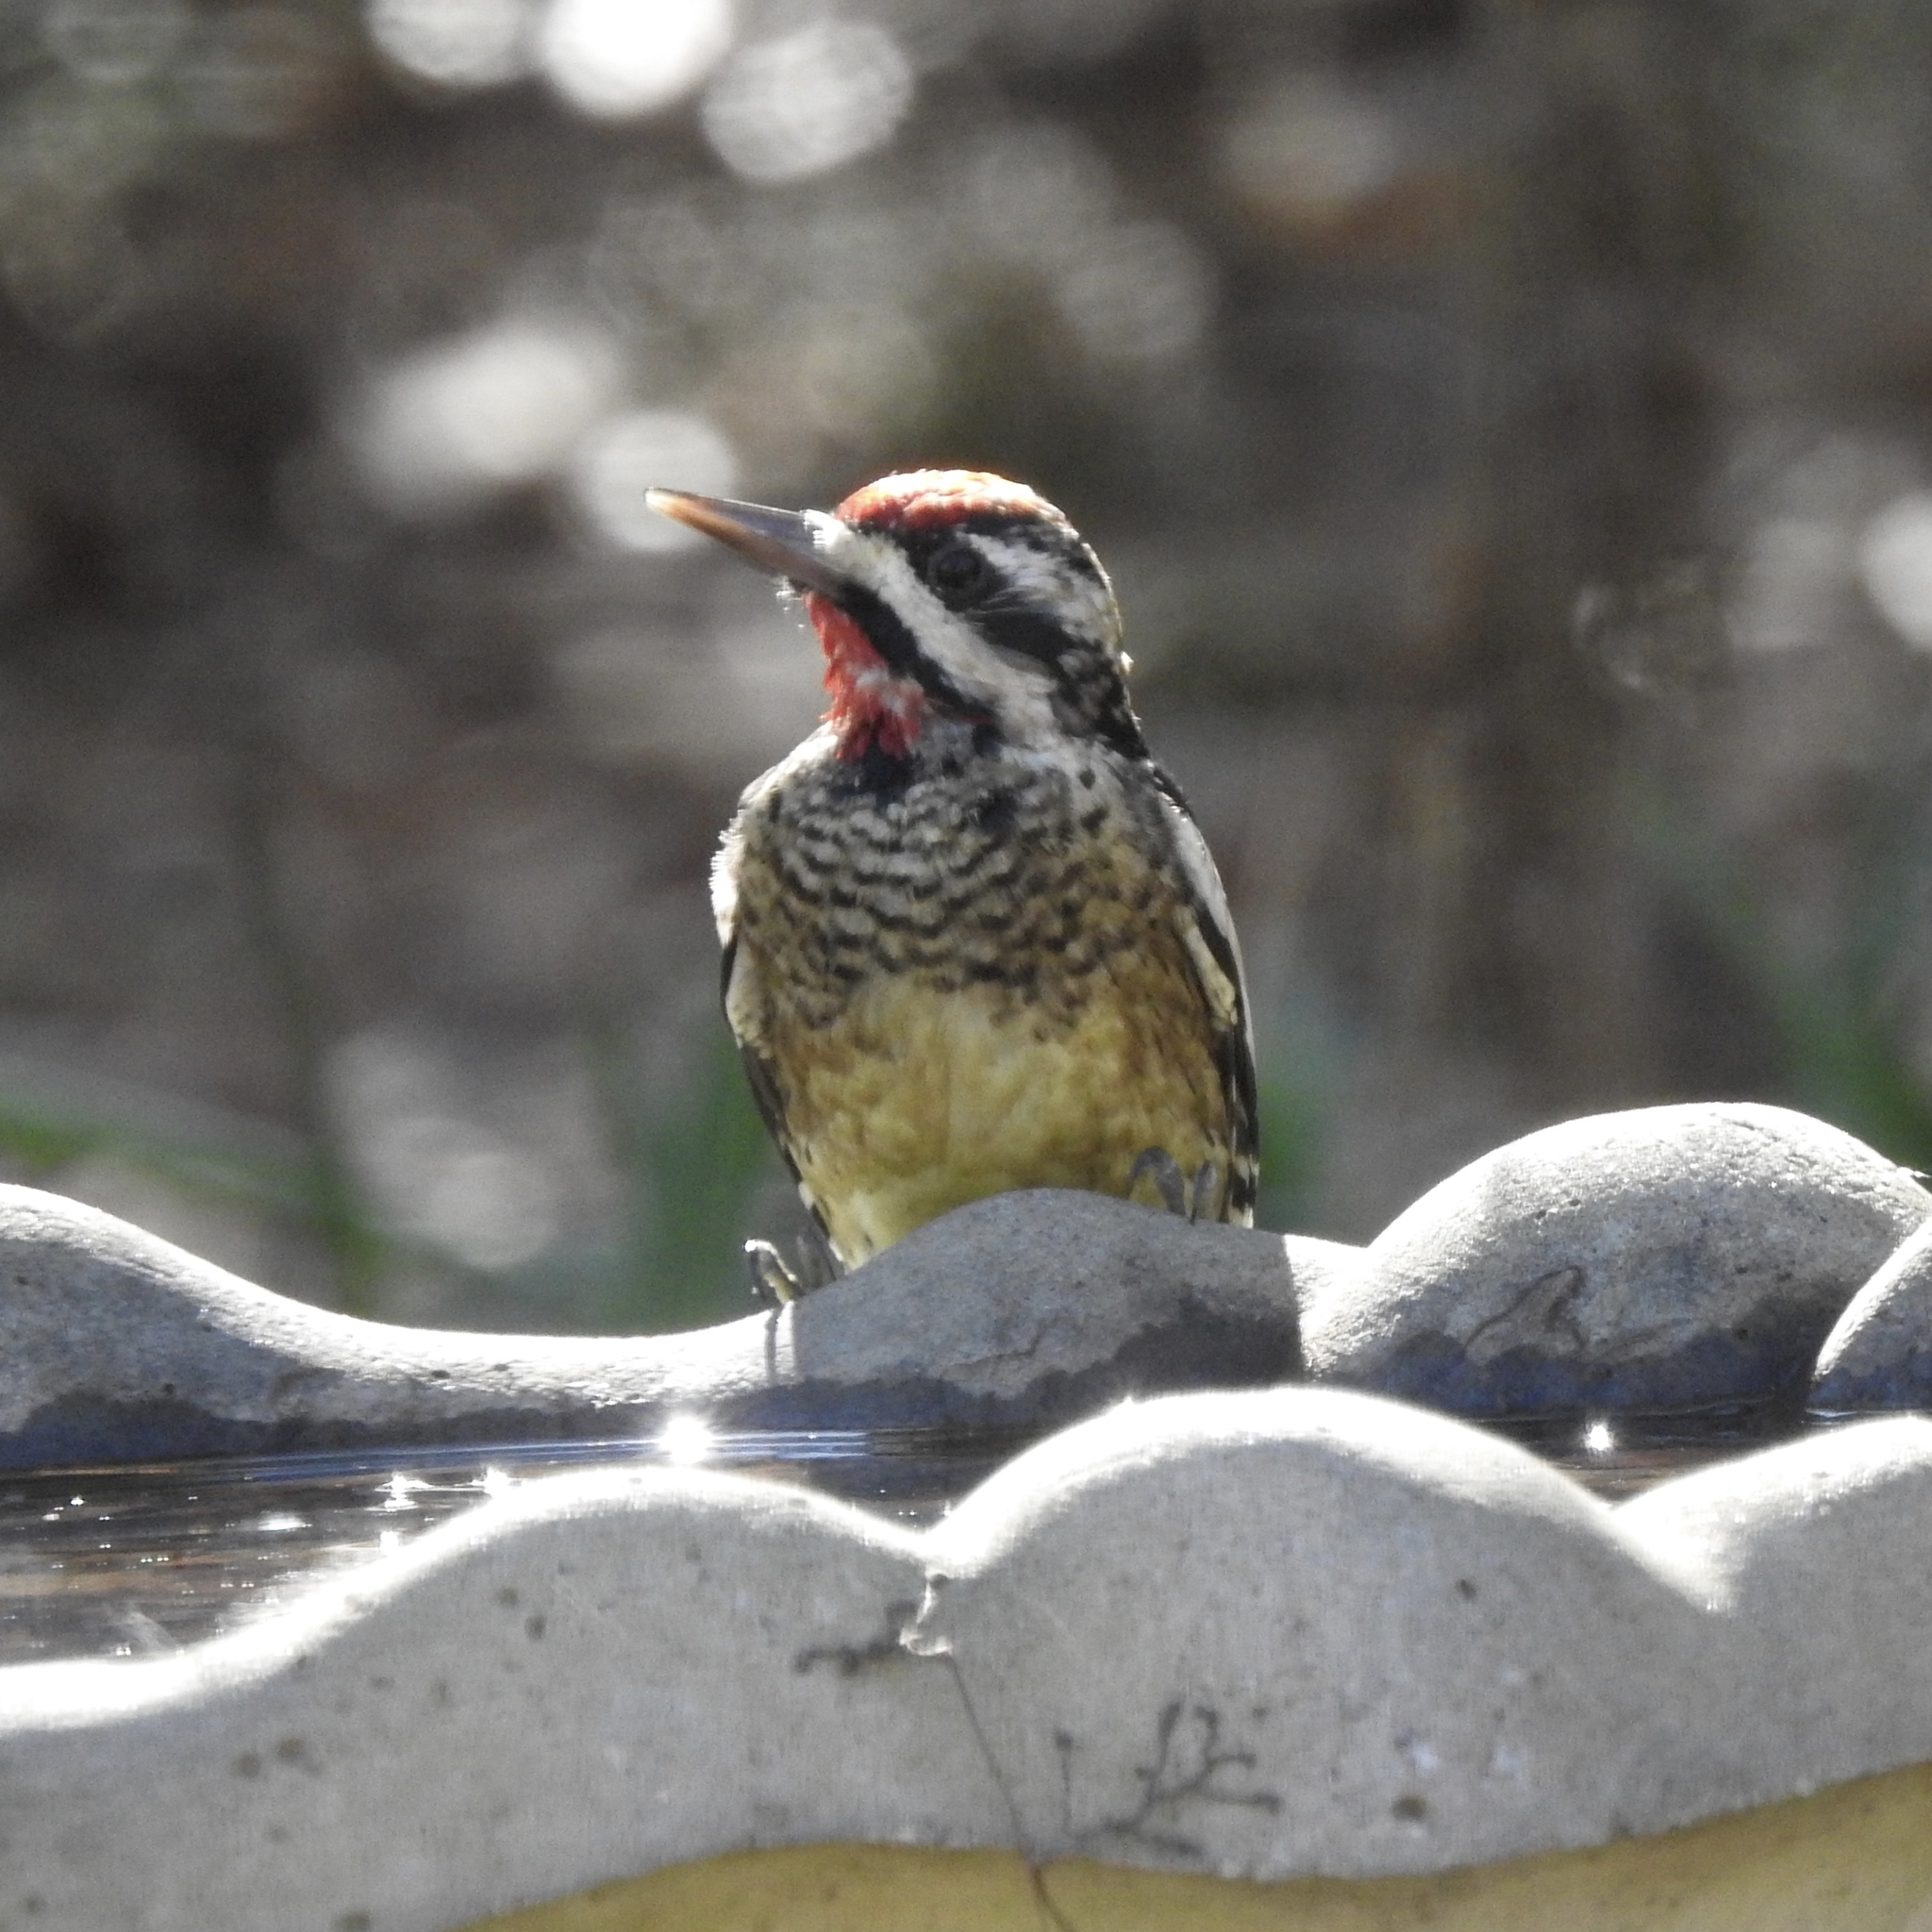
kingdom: Animalia
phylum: Chordata
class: Aves
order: Piciformes
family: Picidae
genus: Sphyrapicus
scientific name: Sphyrapicus varius
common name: Yellow-bellied sapsucker
